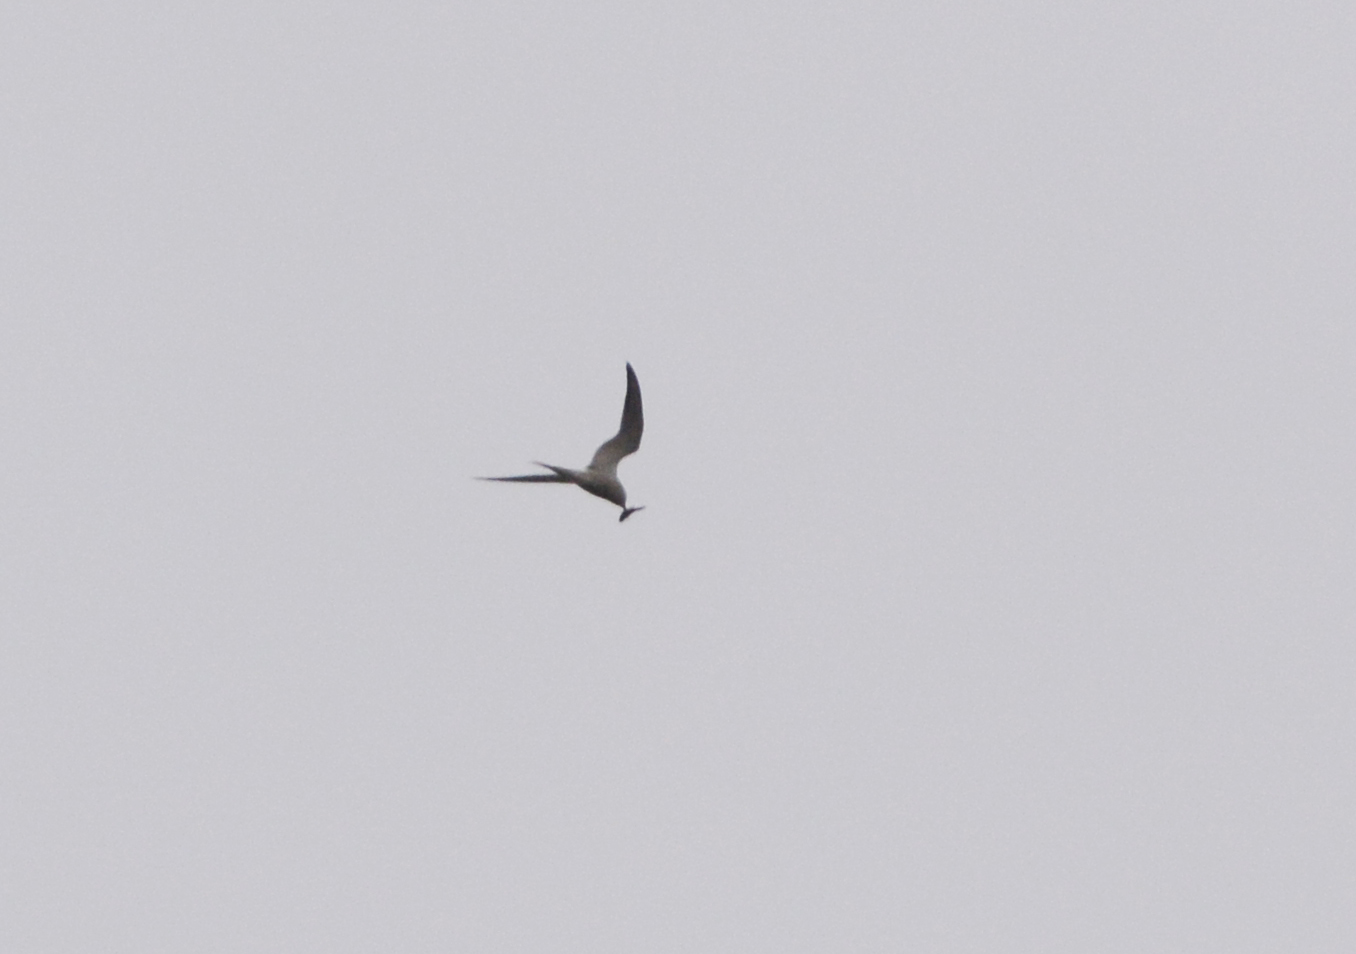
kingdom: Animalia
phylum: Chordata
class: Aves
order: Charadriiformes
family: Laridae
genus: Sterna
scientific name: Sterna hirundo
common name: Common tern
